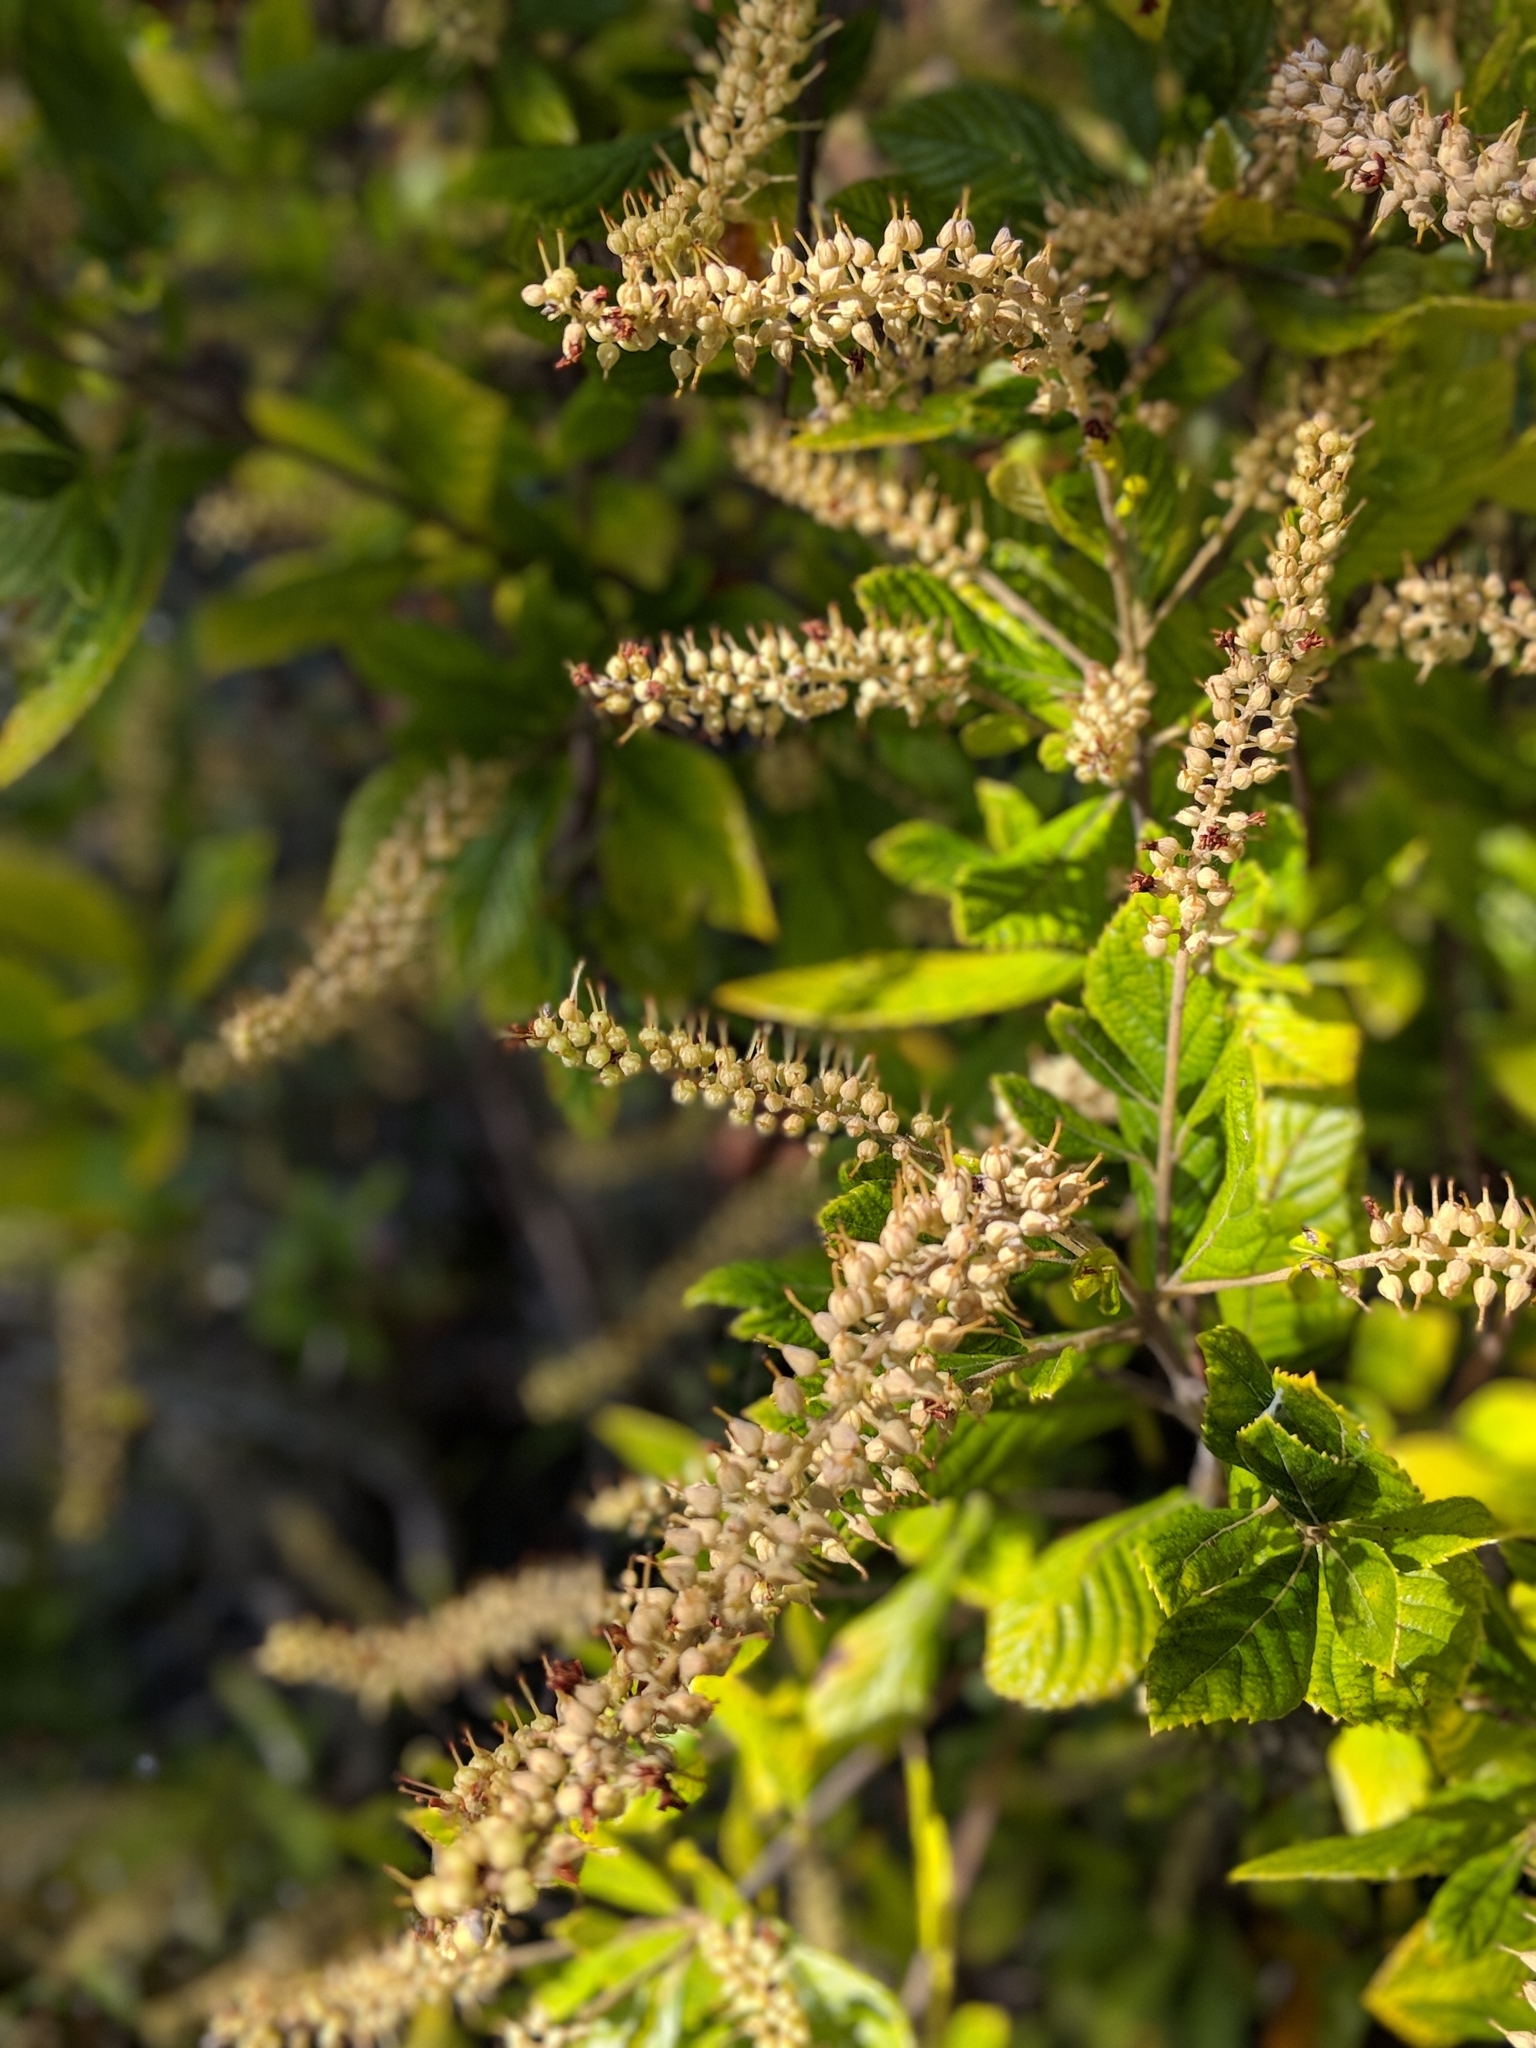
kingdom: Plantae
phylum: Tracheophyta
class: Magnoliopsida
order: Ericales
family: Clethraceae
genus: Clethra
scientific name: Clethra alnifolia
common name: Sweet pepperbush
